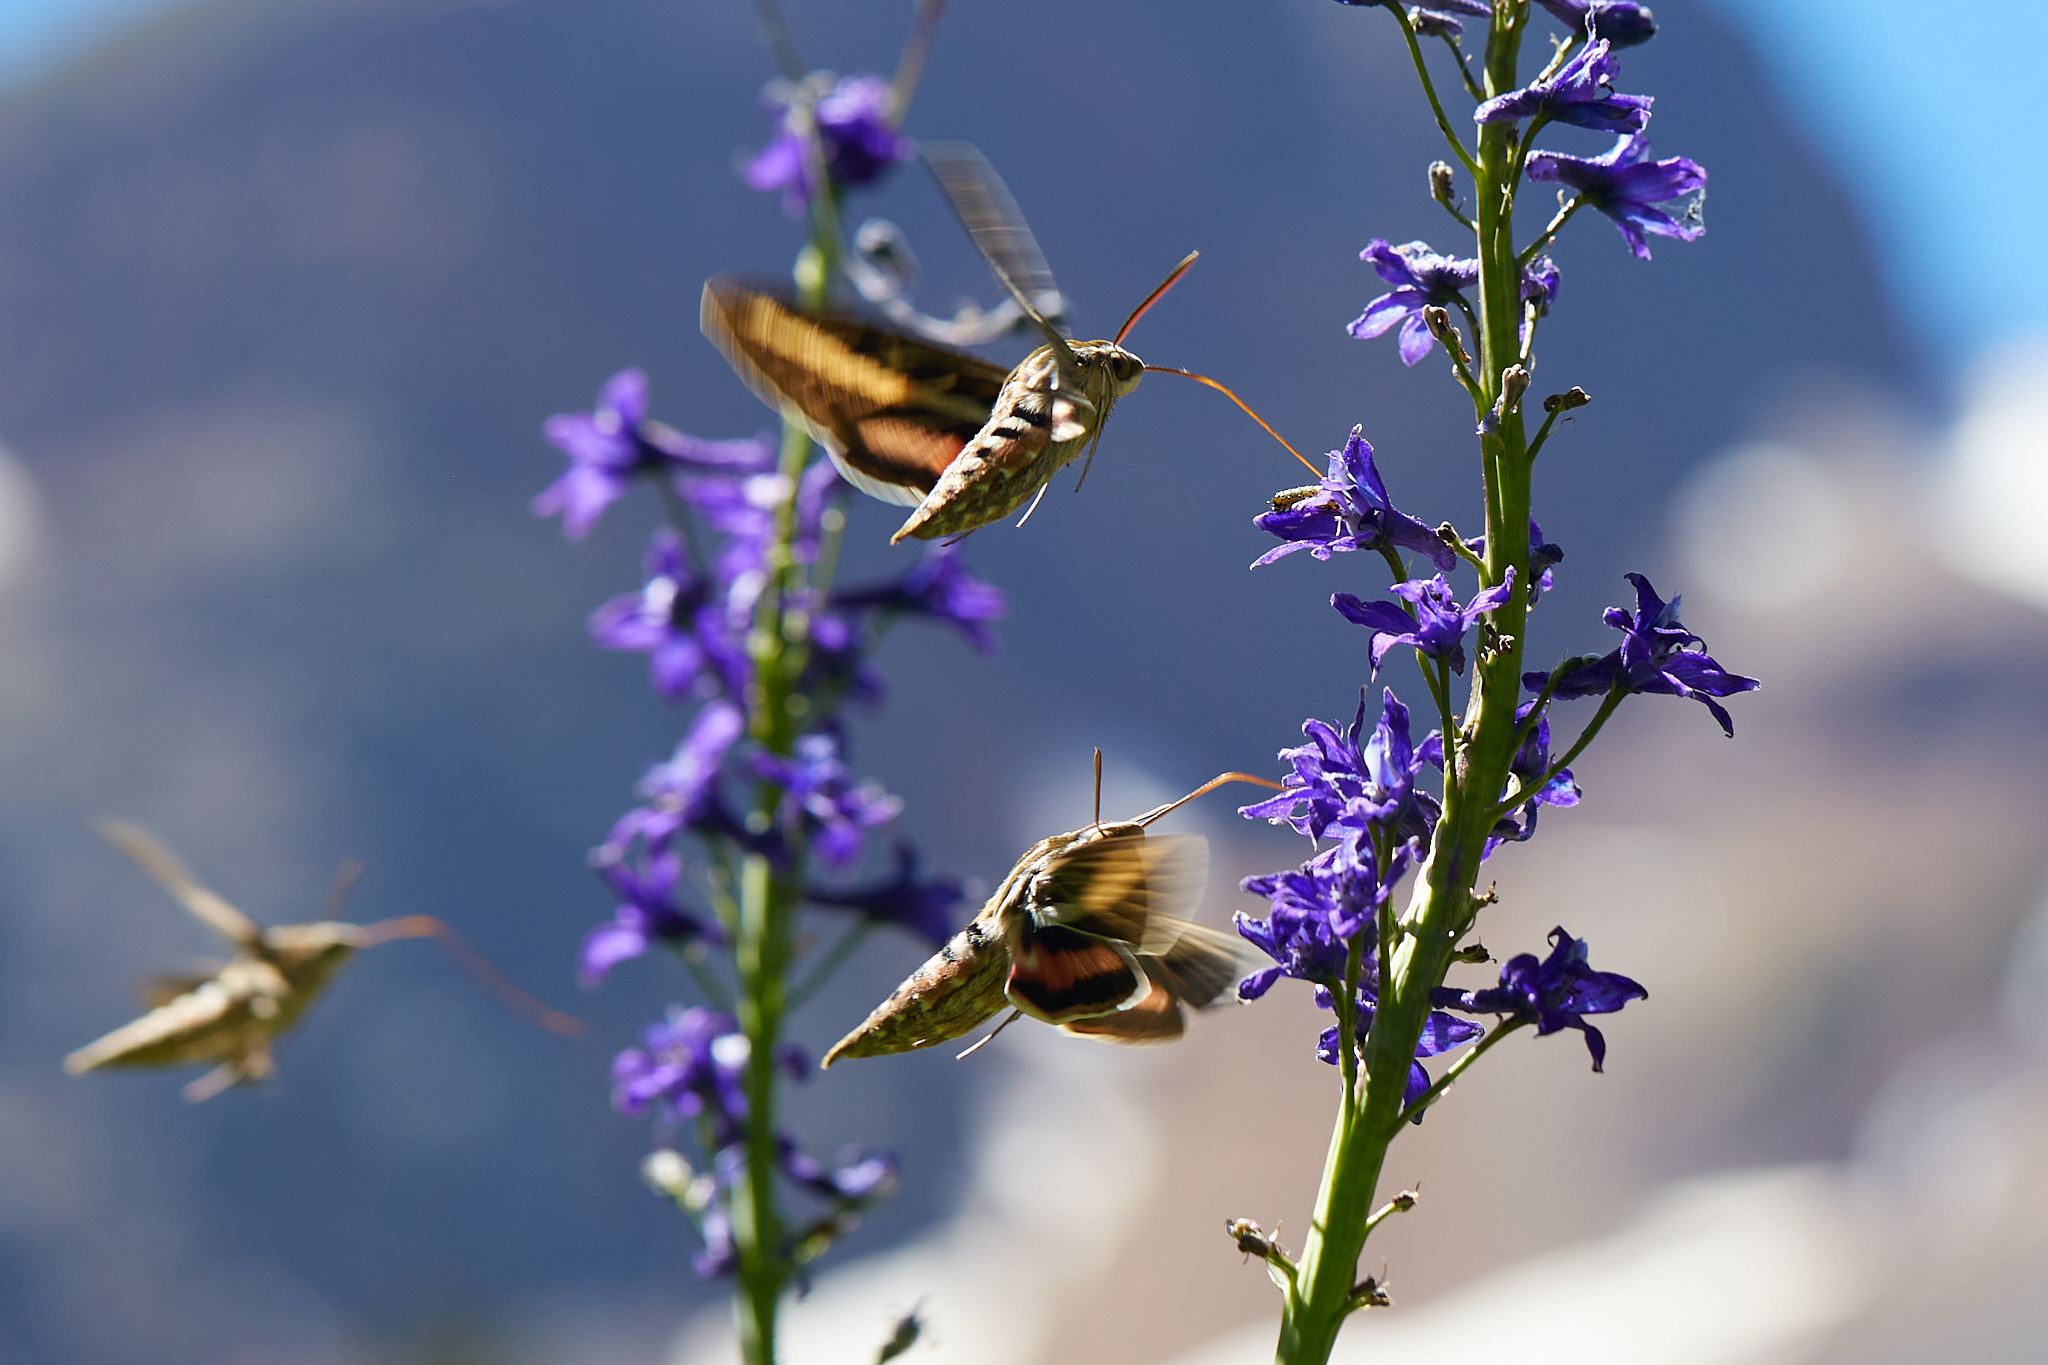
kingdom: Animalia
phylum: Arthropoda
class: Insecta
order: Lepidoptera
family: Sphingidae
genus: Hyles
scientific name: Hyles lineata
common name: White-lined sphinx
